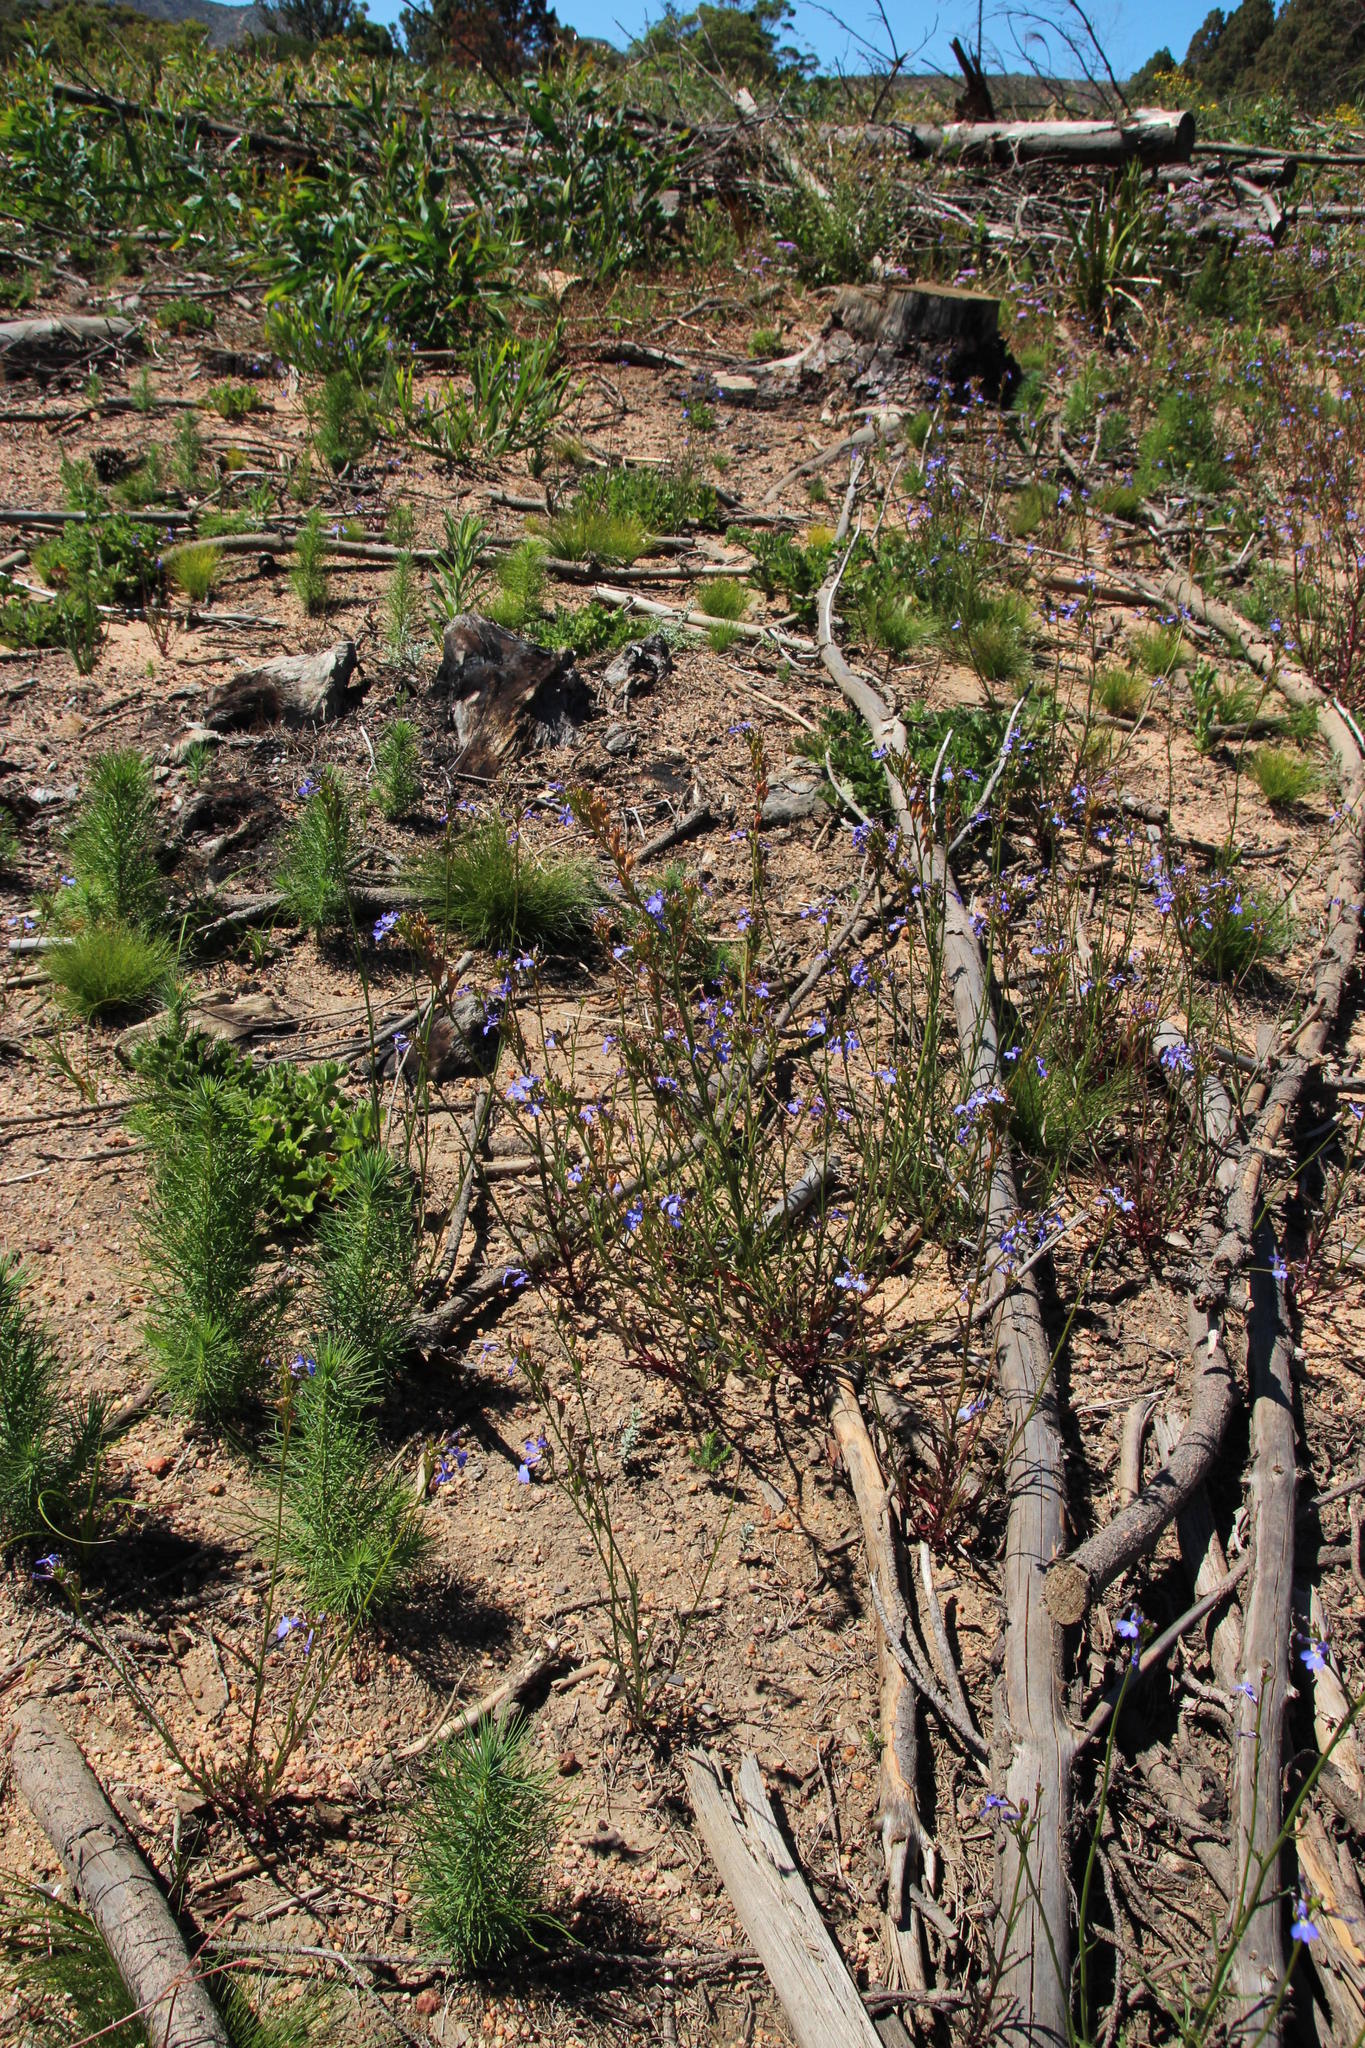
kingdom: Plantae
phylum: Tracheophyta
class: Magnoliopsida
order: Asterales
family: Campanulaceae
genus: Lobelia
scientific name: Lobelia comosa
